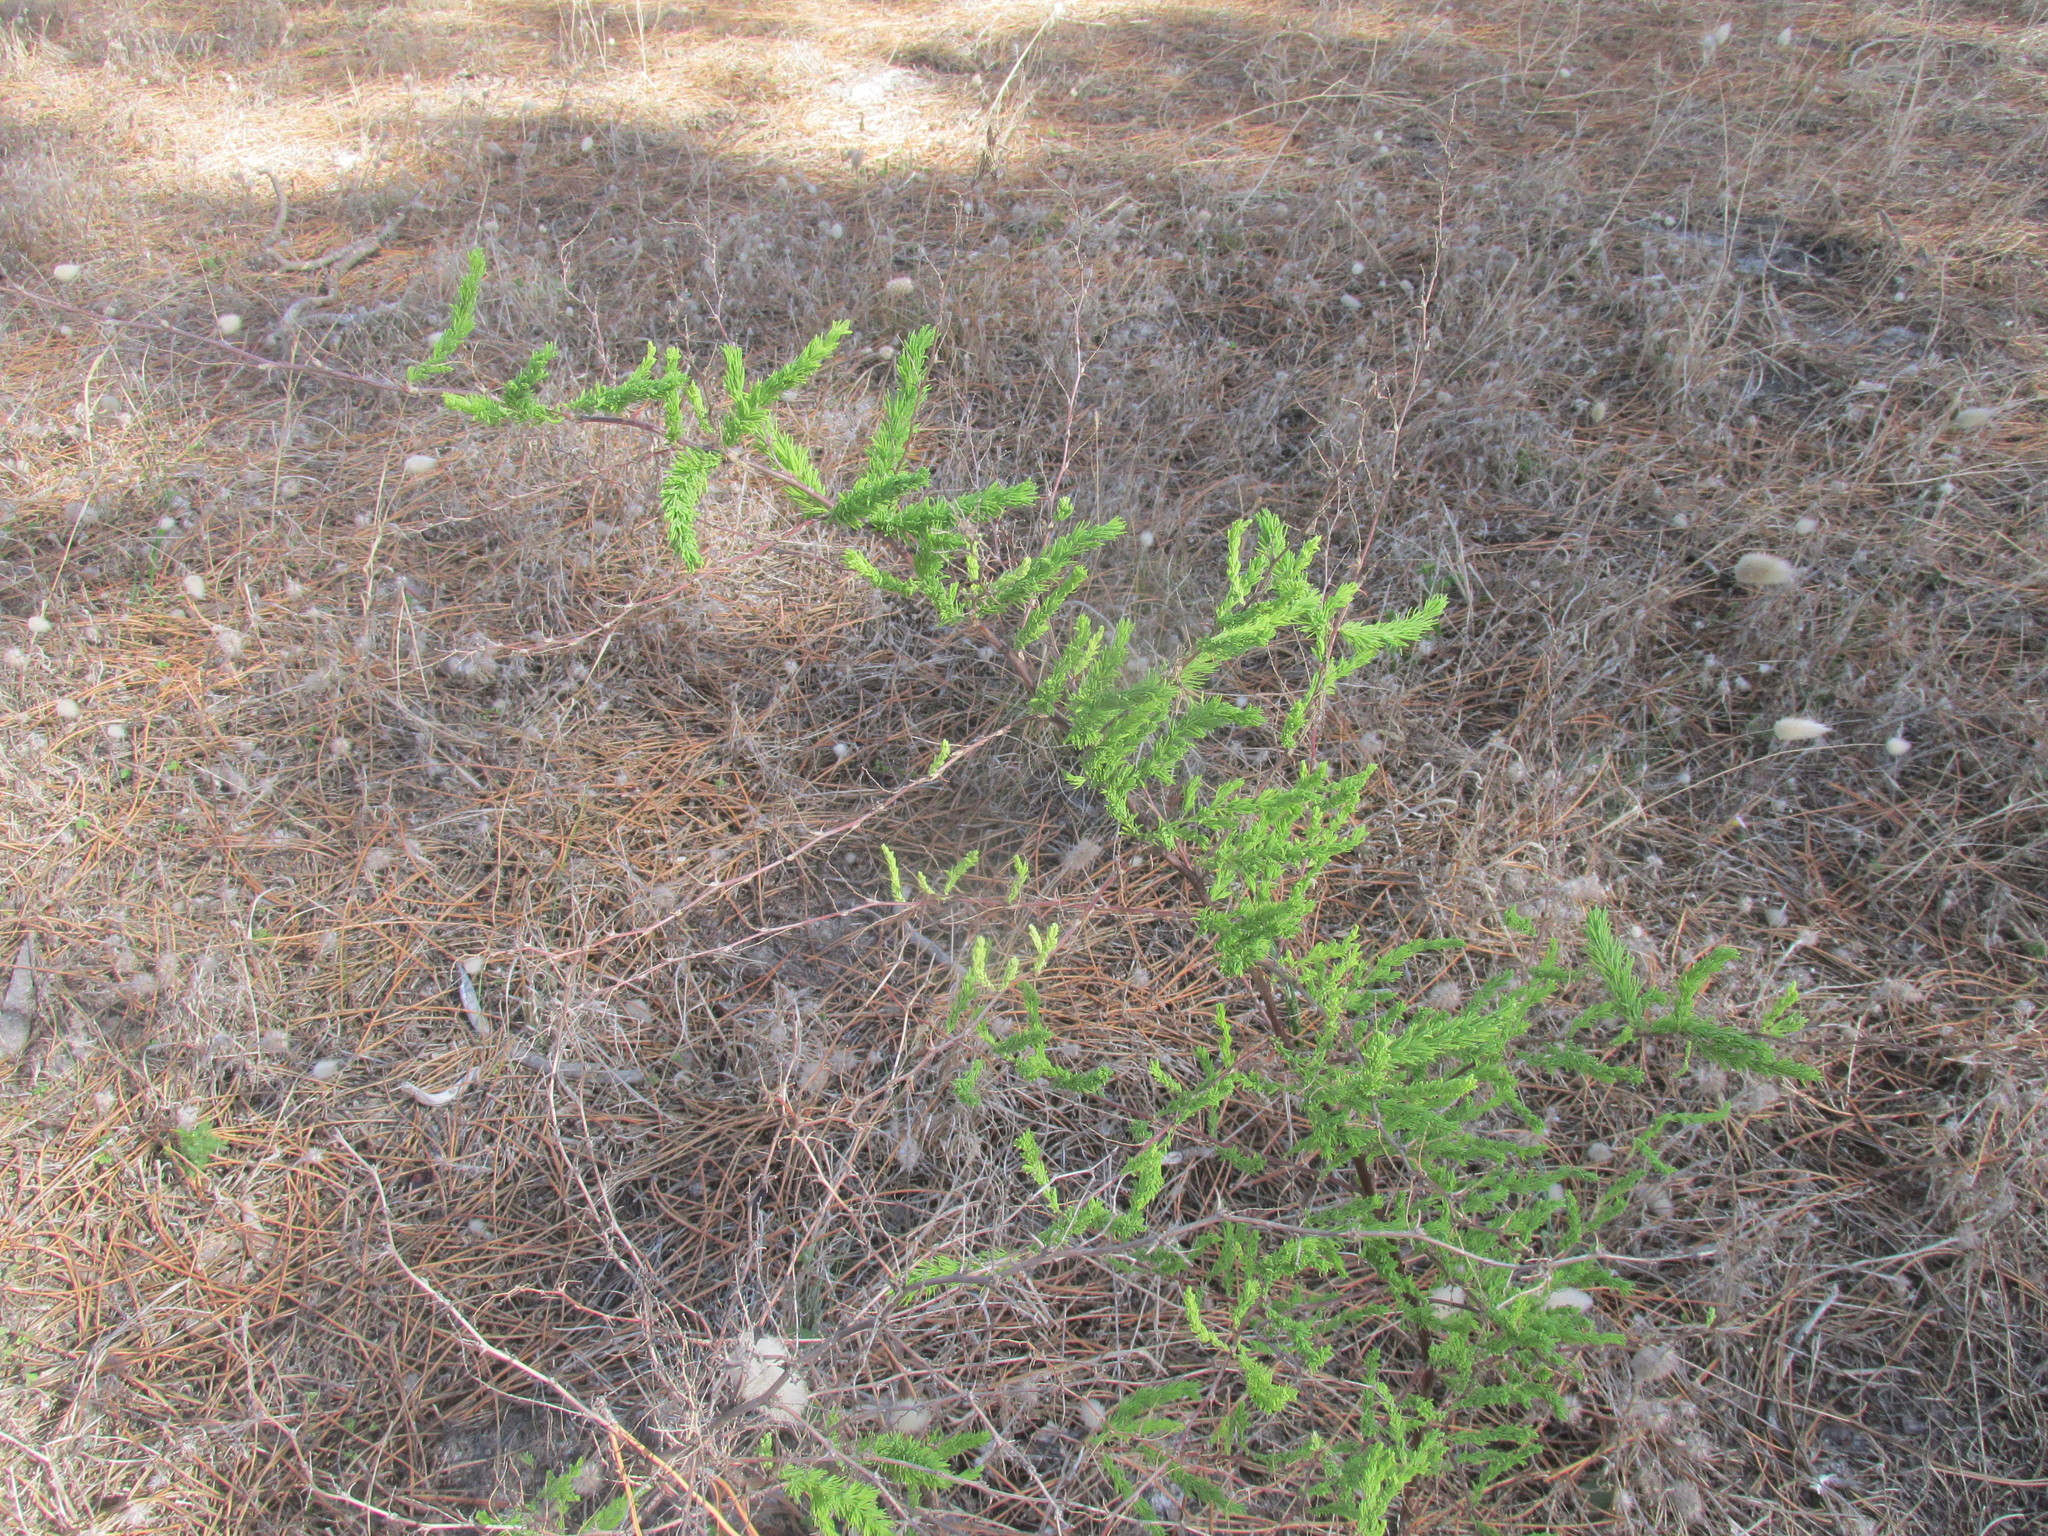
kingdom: Plantae
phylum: Tracheophyta
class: Liliopsida
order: Asparagales
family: Asparagaceae
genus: Asparagus
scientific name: Asparagus rubicundus
